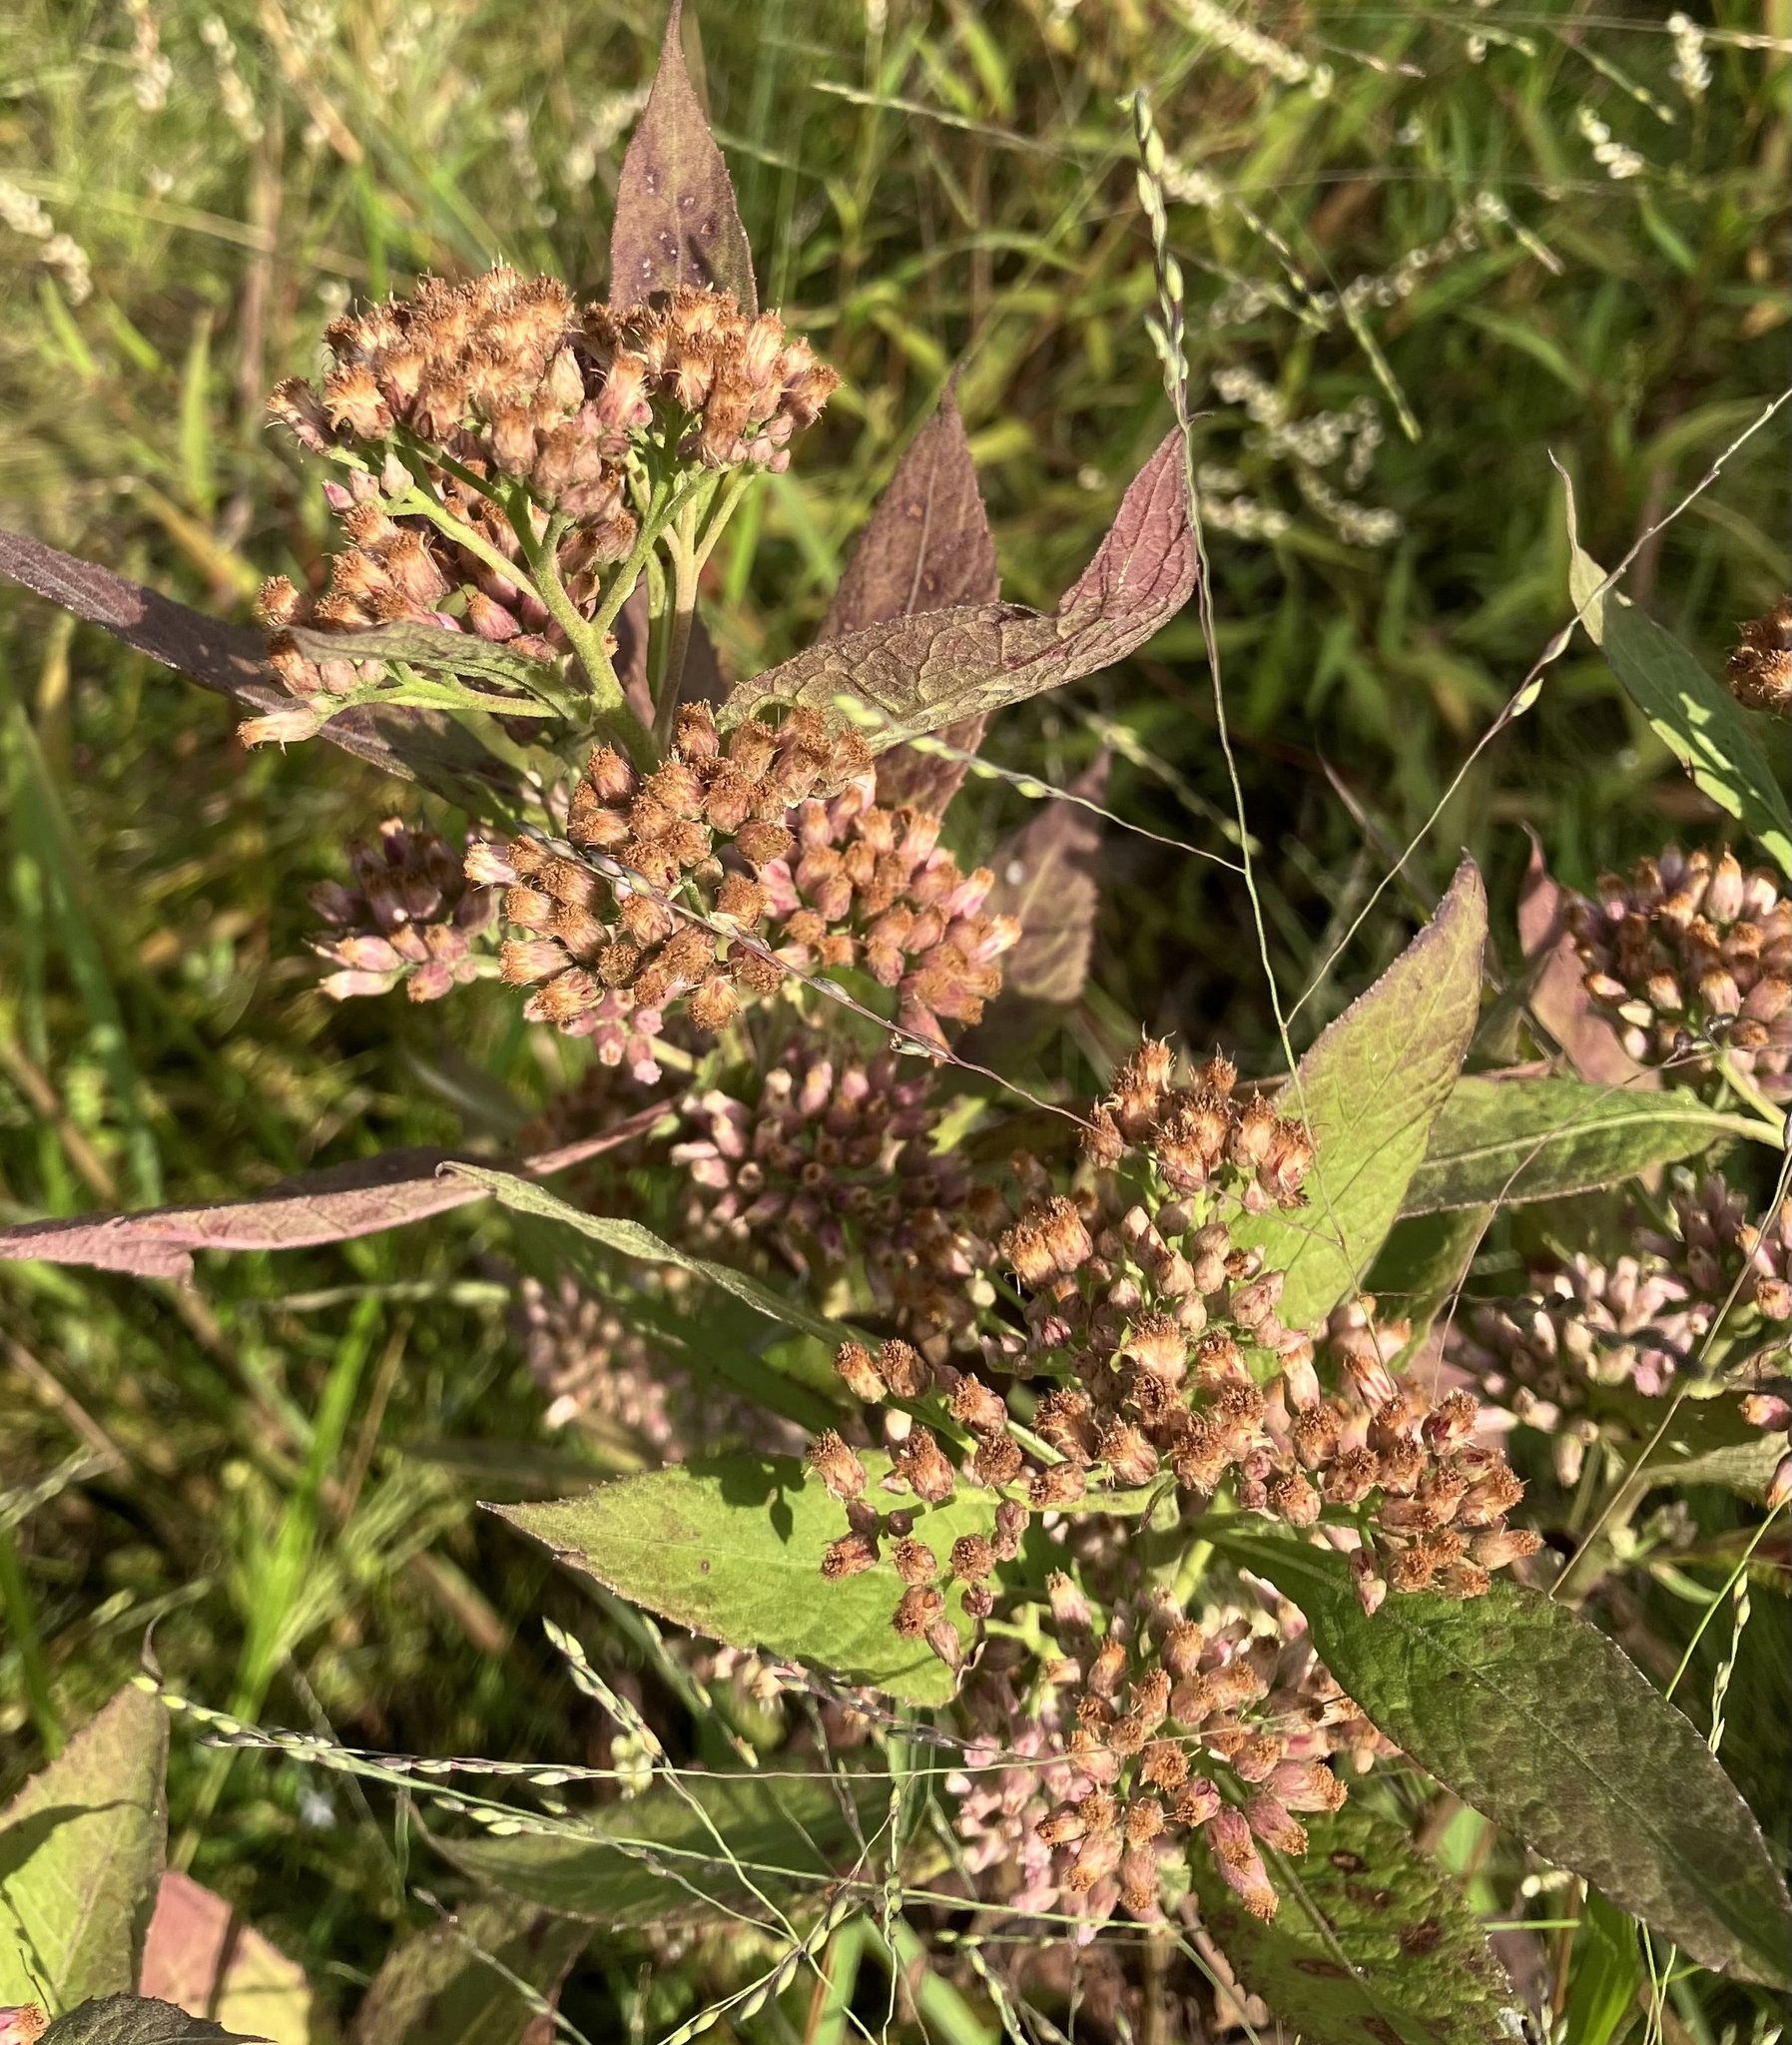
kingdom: Plantae
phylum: Tracheophyta
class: Magnoliopsida
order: Asterales
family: Asteraceae
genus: Pluchea
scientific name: Pluchea camphorata
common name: Camphor pluchea
